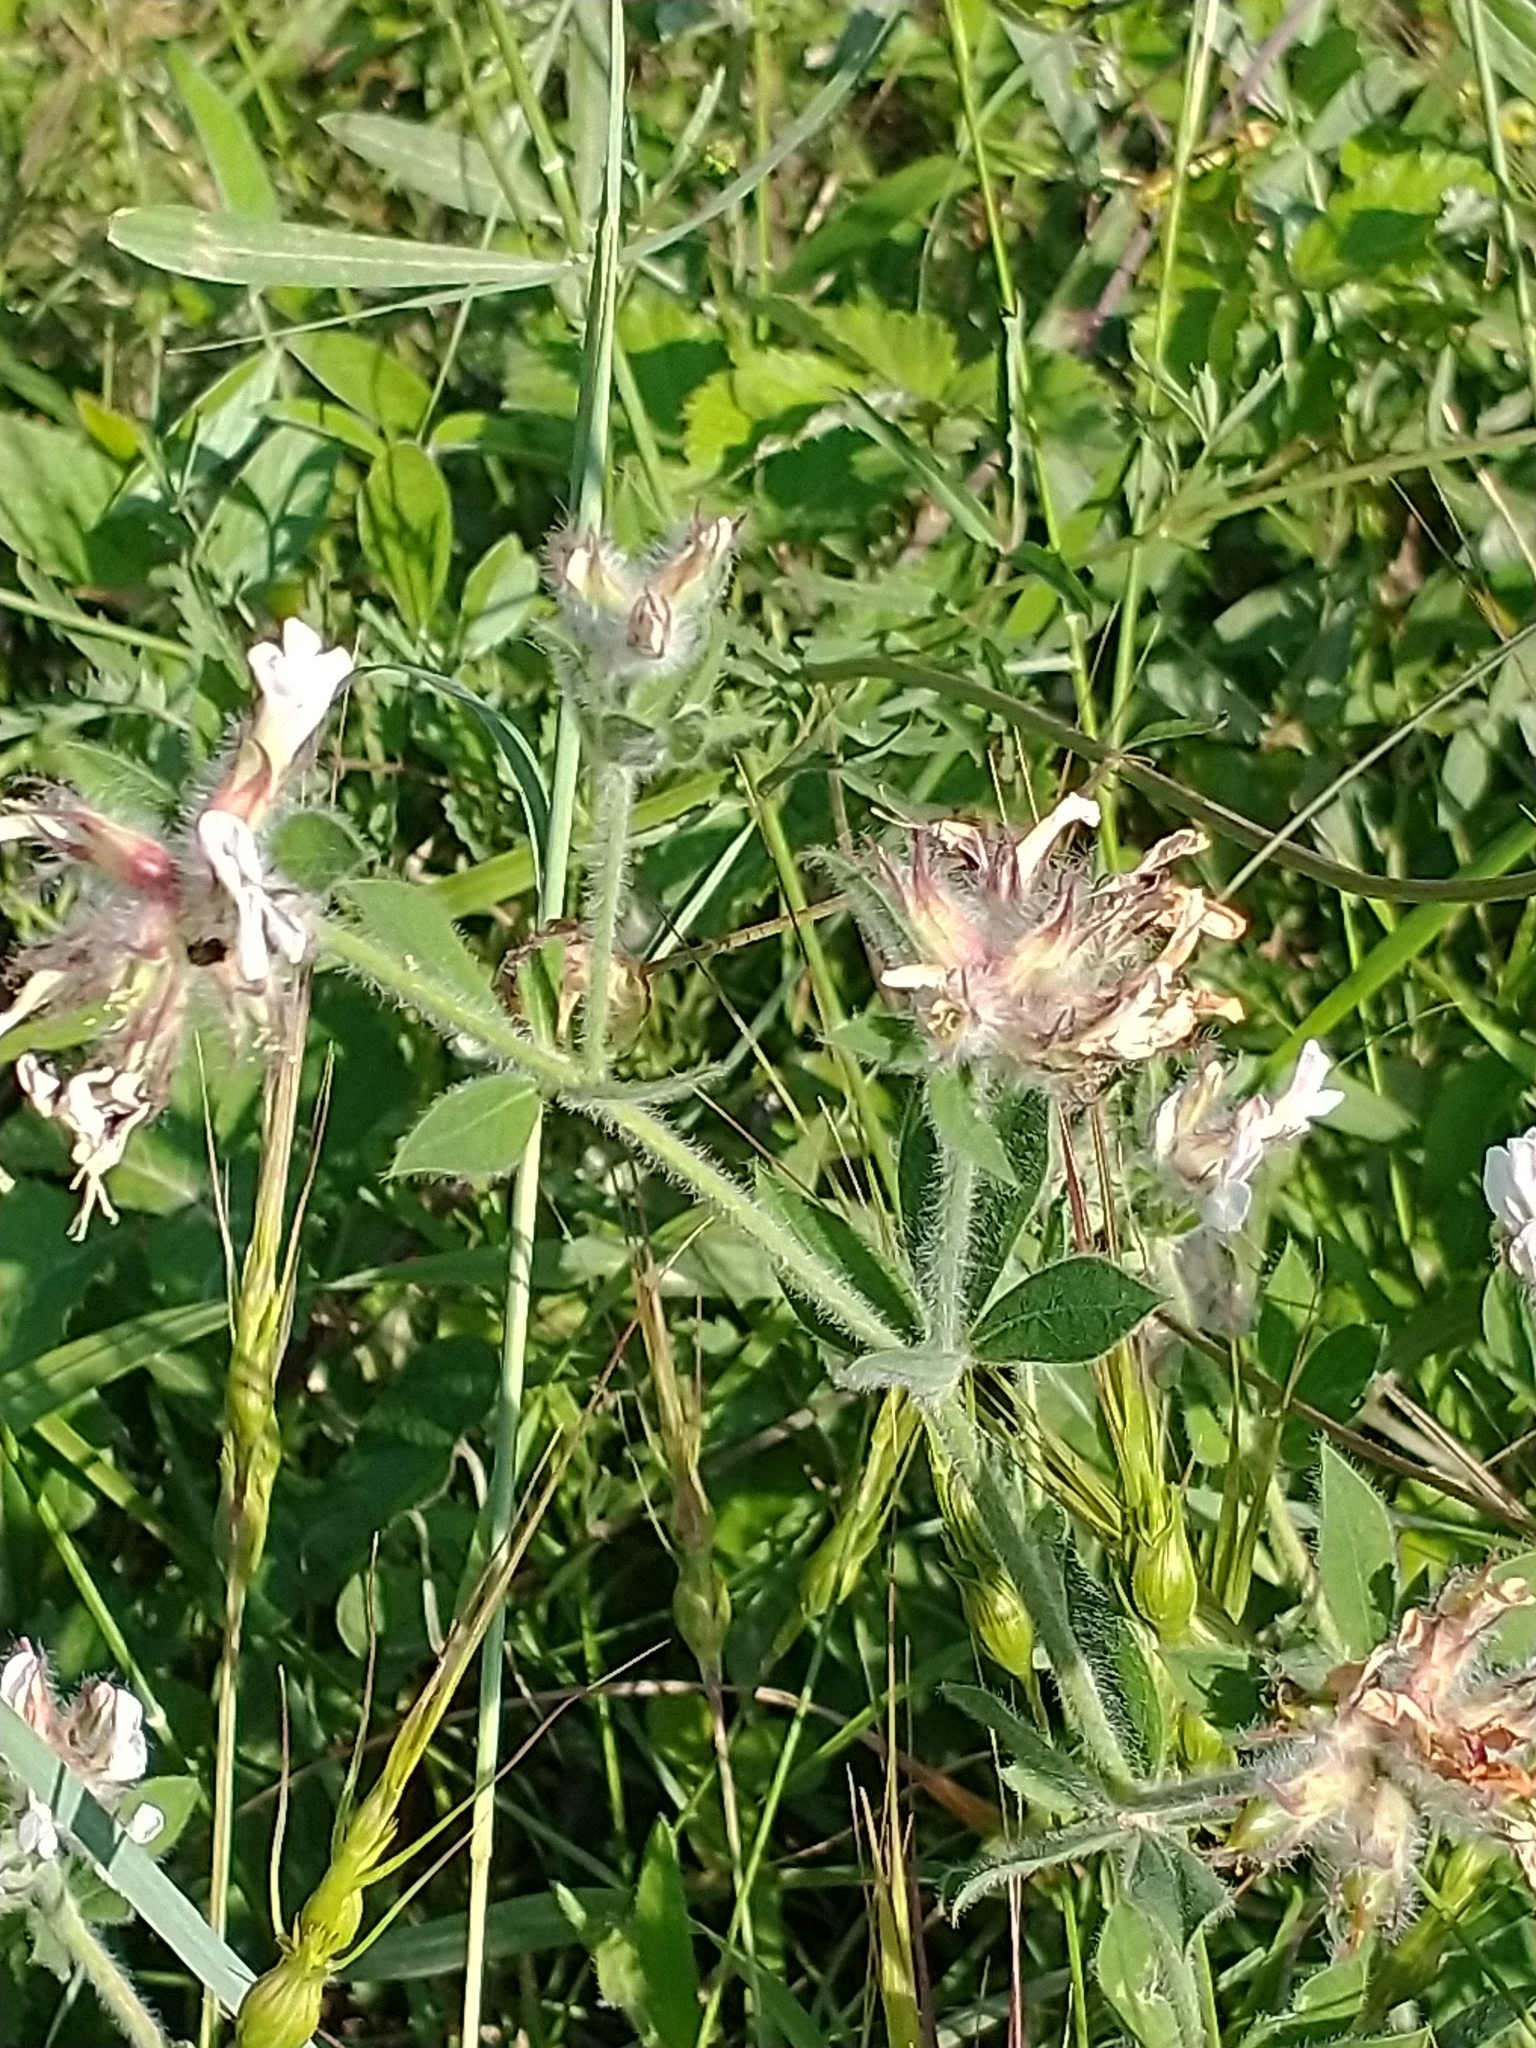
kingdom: Plantae
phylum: Tracheophyta
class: Magnoliopsida
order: Fabales
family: Fabaceae
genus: Lotus
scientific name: Lotus hirsutus
